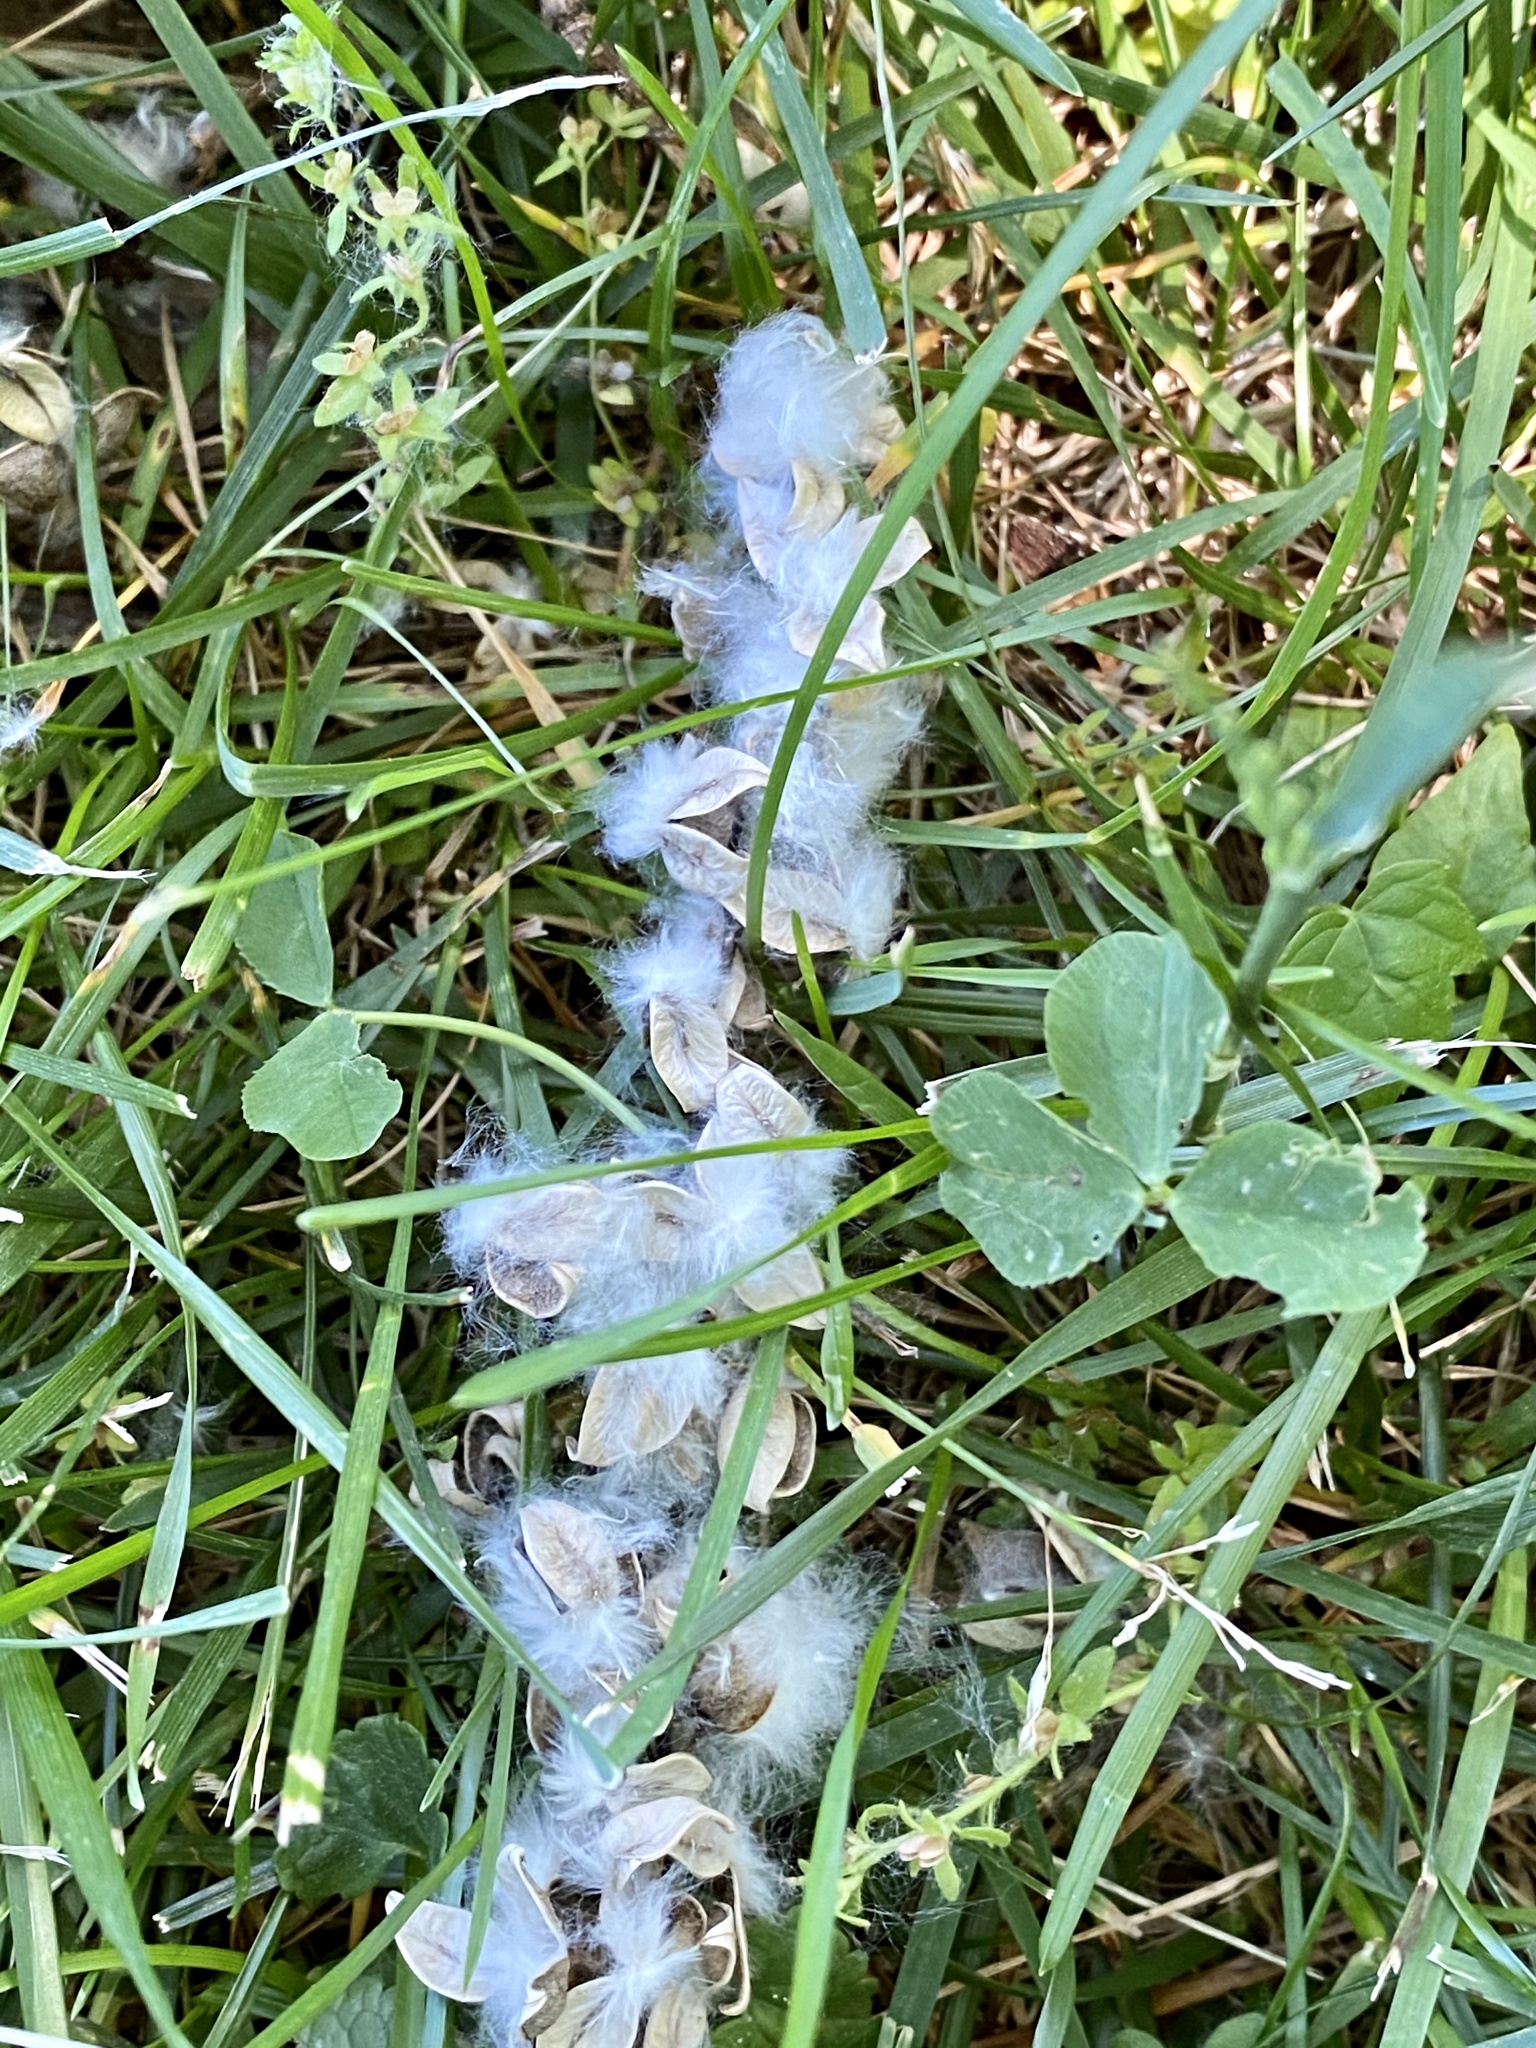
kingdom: Plantae
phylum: Tracheophyta
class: Magnoliopsida
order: Malpighiales
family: Salicaceae
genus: Populus
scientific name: Populus deltoides
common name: Eastern cottonwood
